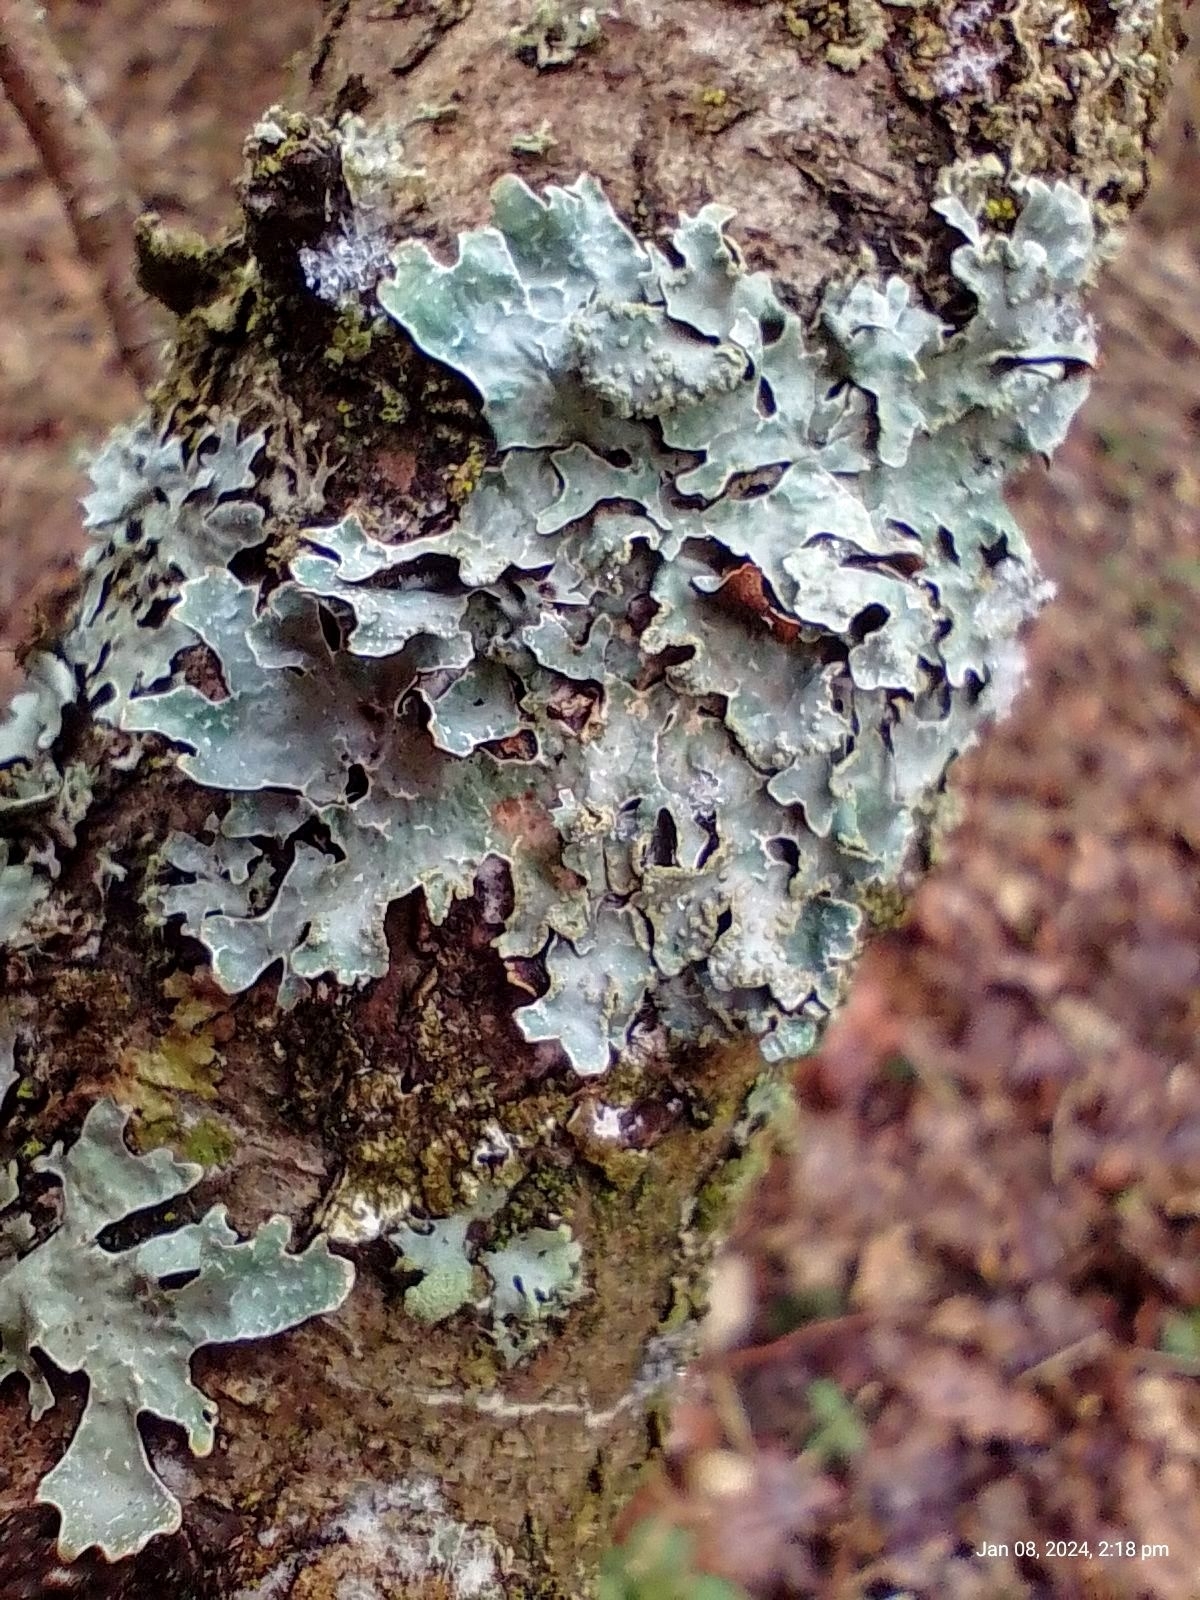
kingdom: Fungi
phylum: Ascomycota
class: Lecanoromycetes
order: Lecanorales
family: Parmeliaceae
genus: Parmelia
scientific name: Parmelia sulcata
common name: Netted shield lichen
